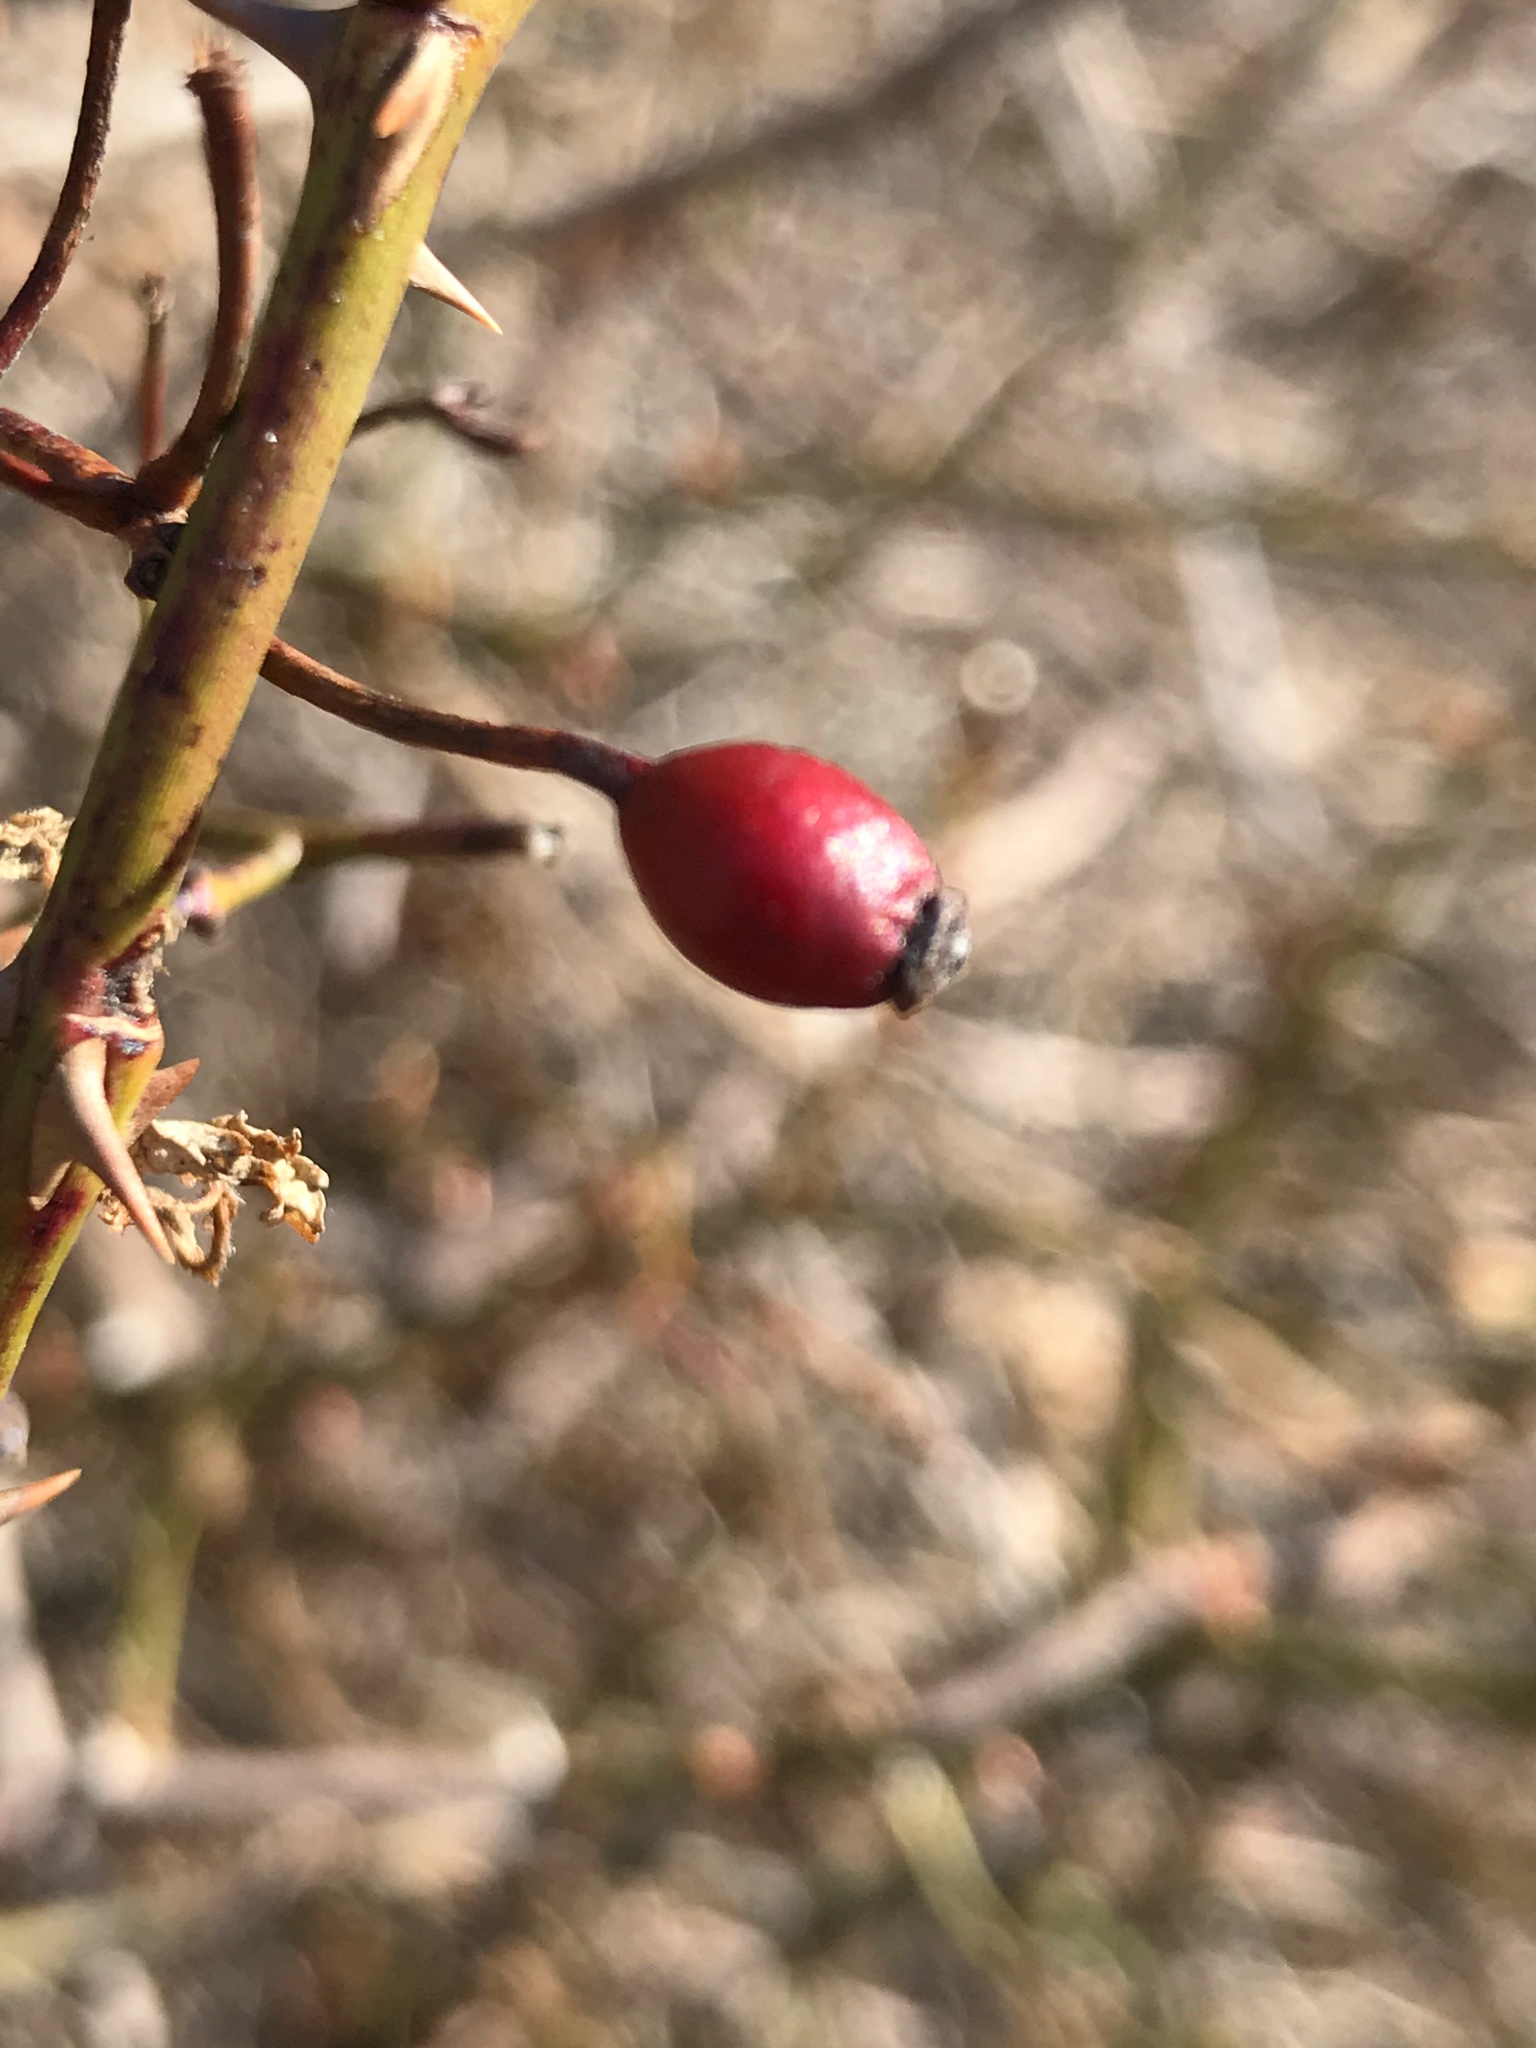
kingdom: Plantae
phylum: Tracheophyta
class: Magnoliopsida
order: Rosales
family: Rosaceae
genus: Rosa
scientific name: Rosa multiflora
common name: Multiflora rose
